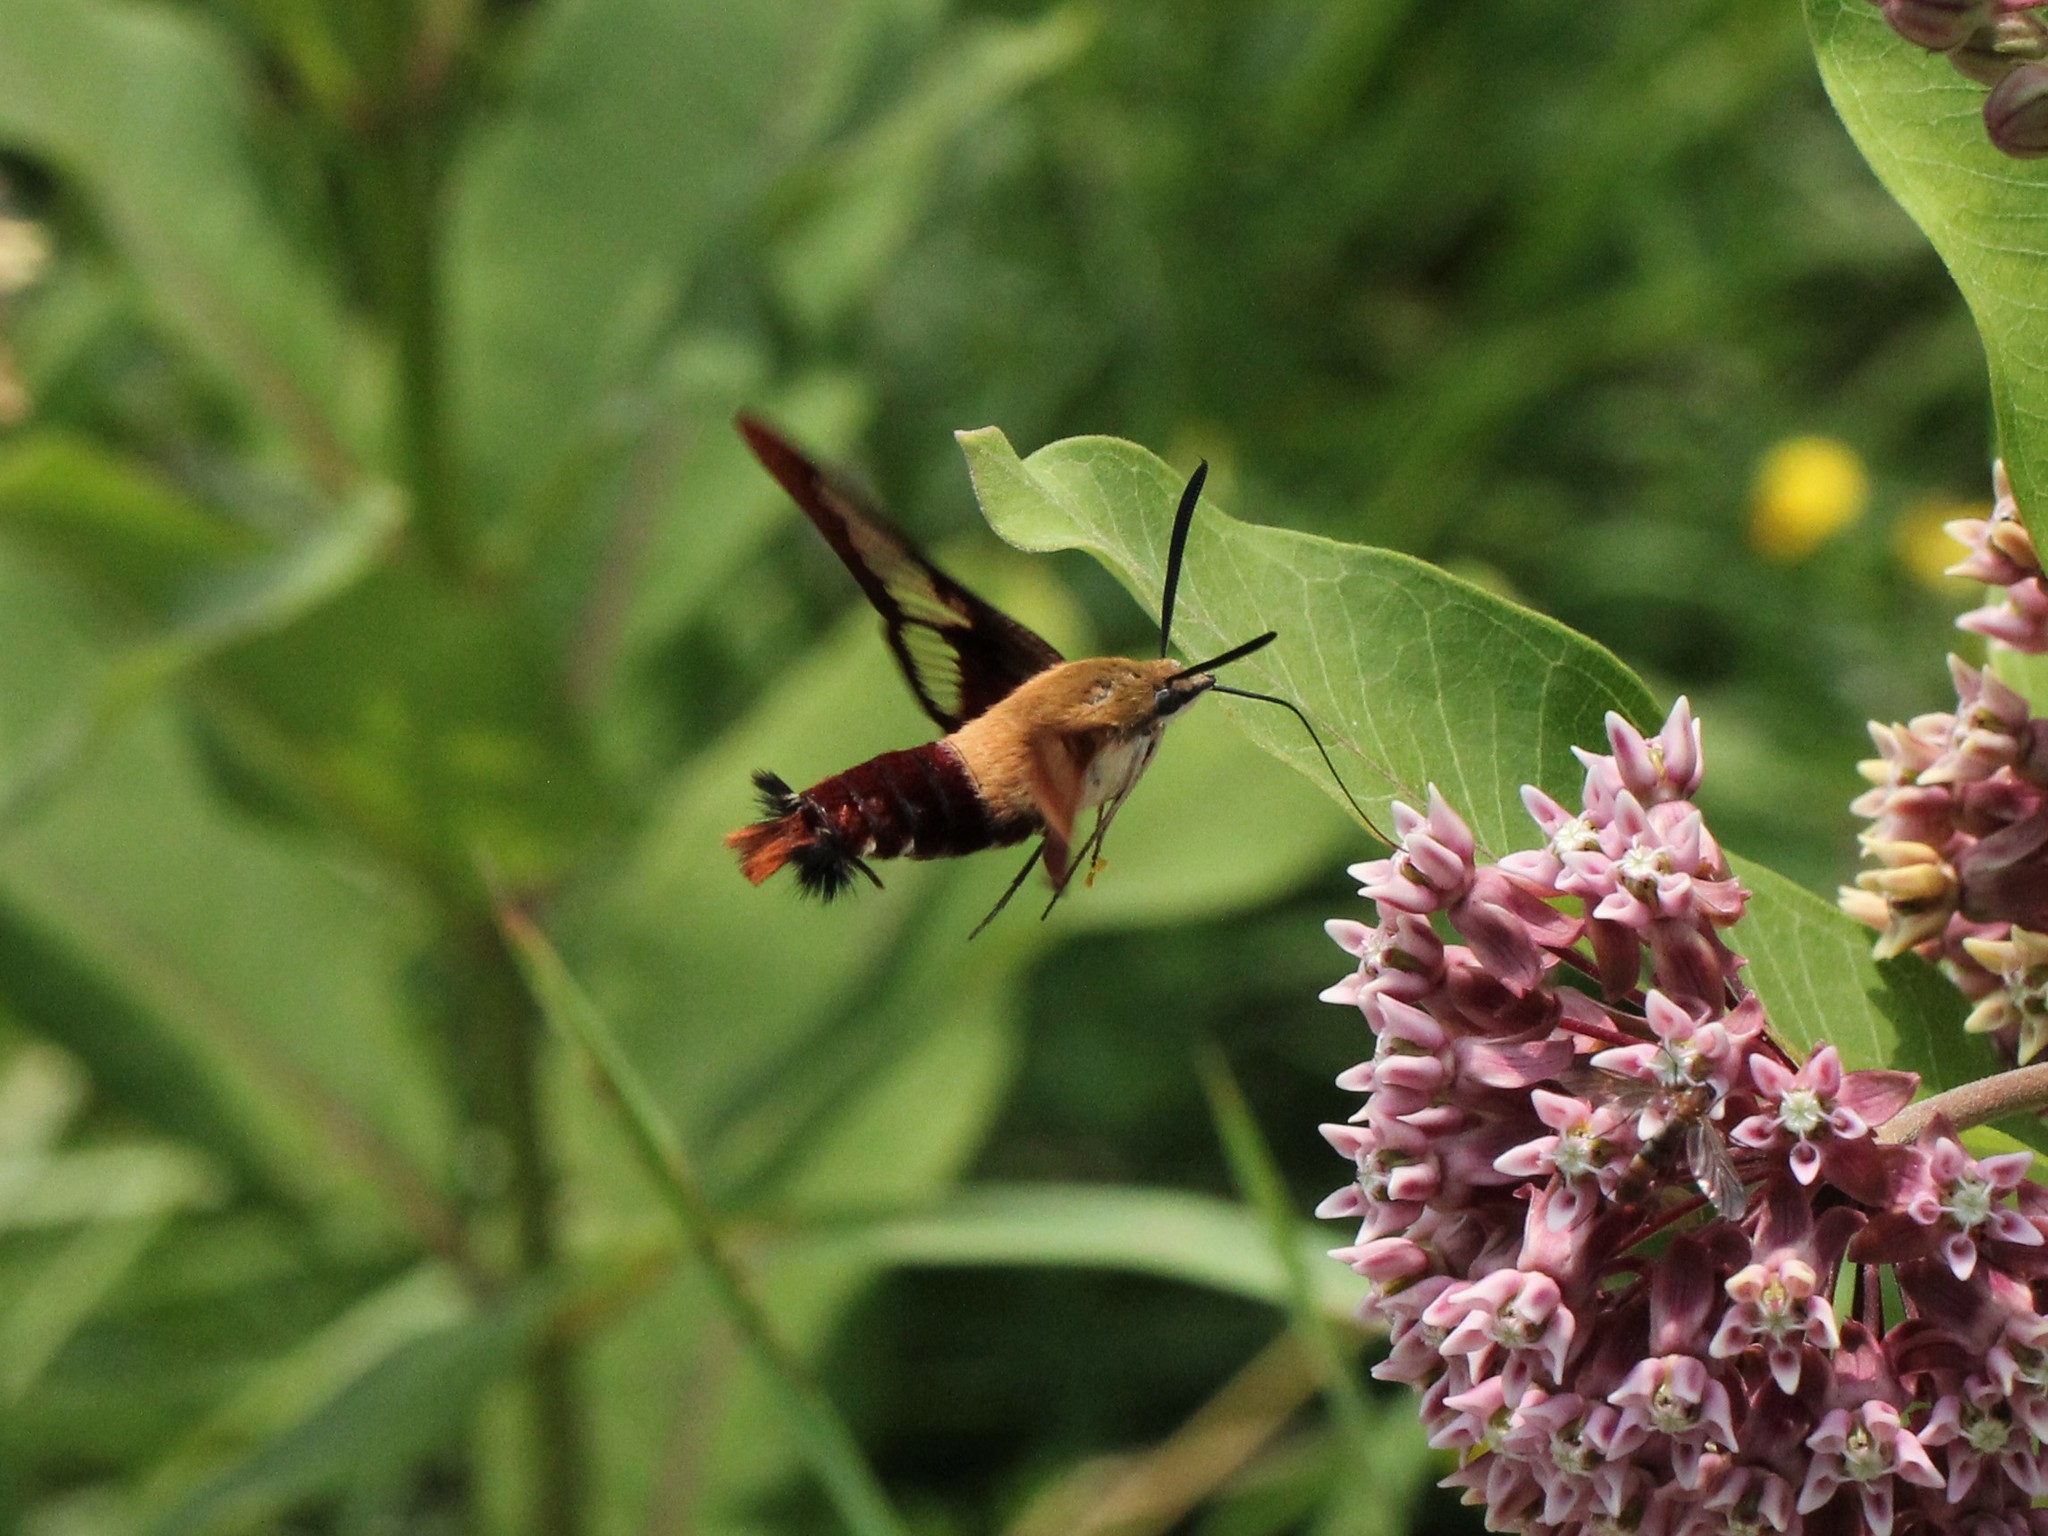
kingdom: Animalia
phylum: Arthropoda
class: Insecta
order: Lepidoptera
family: Sphingidae
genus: Hemaris
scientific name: Hemaris thysbe
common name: Common clear-wing
